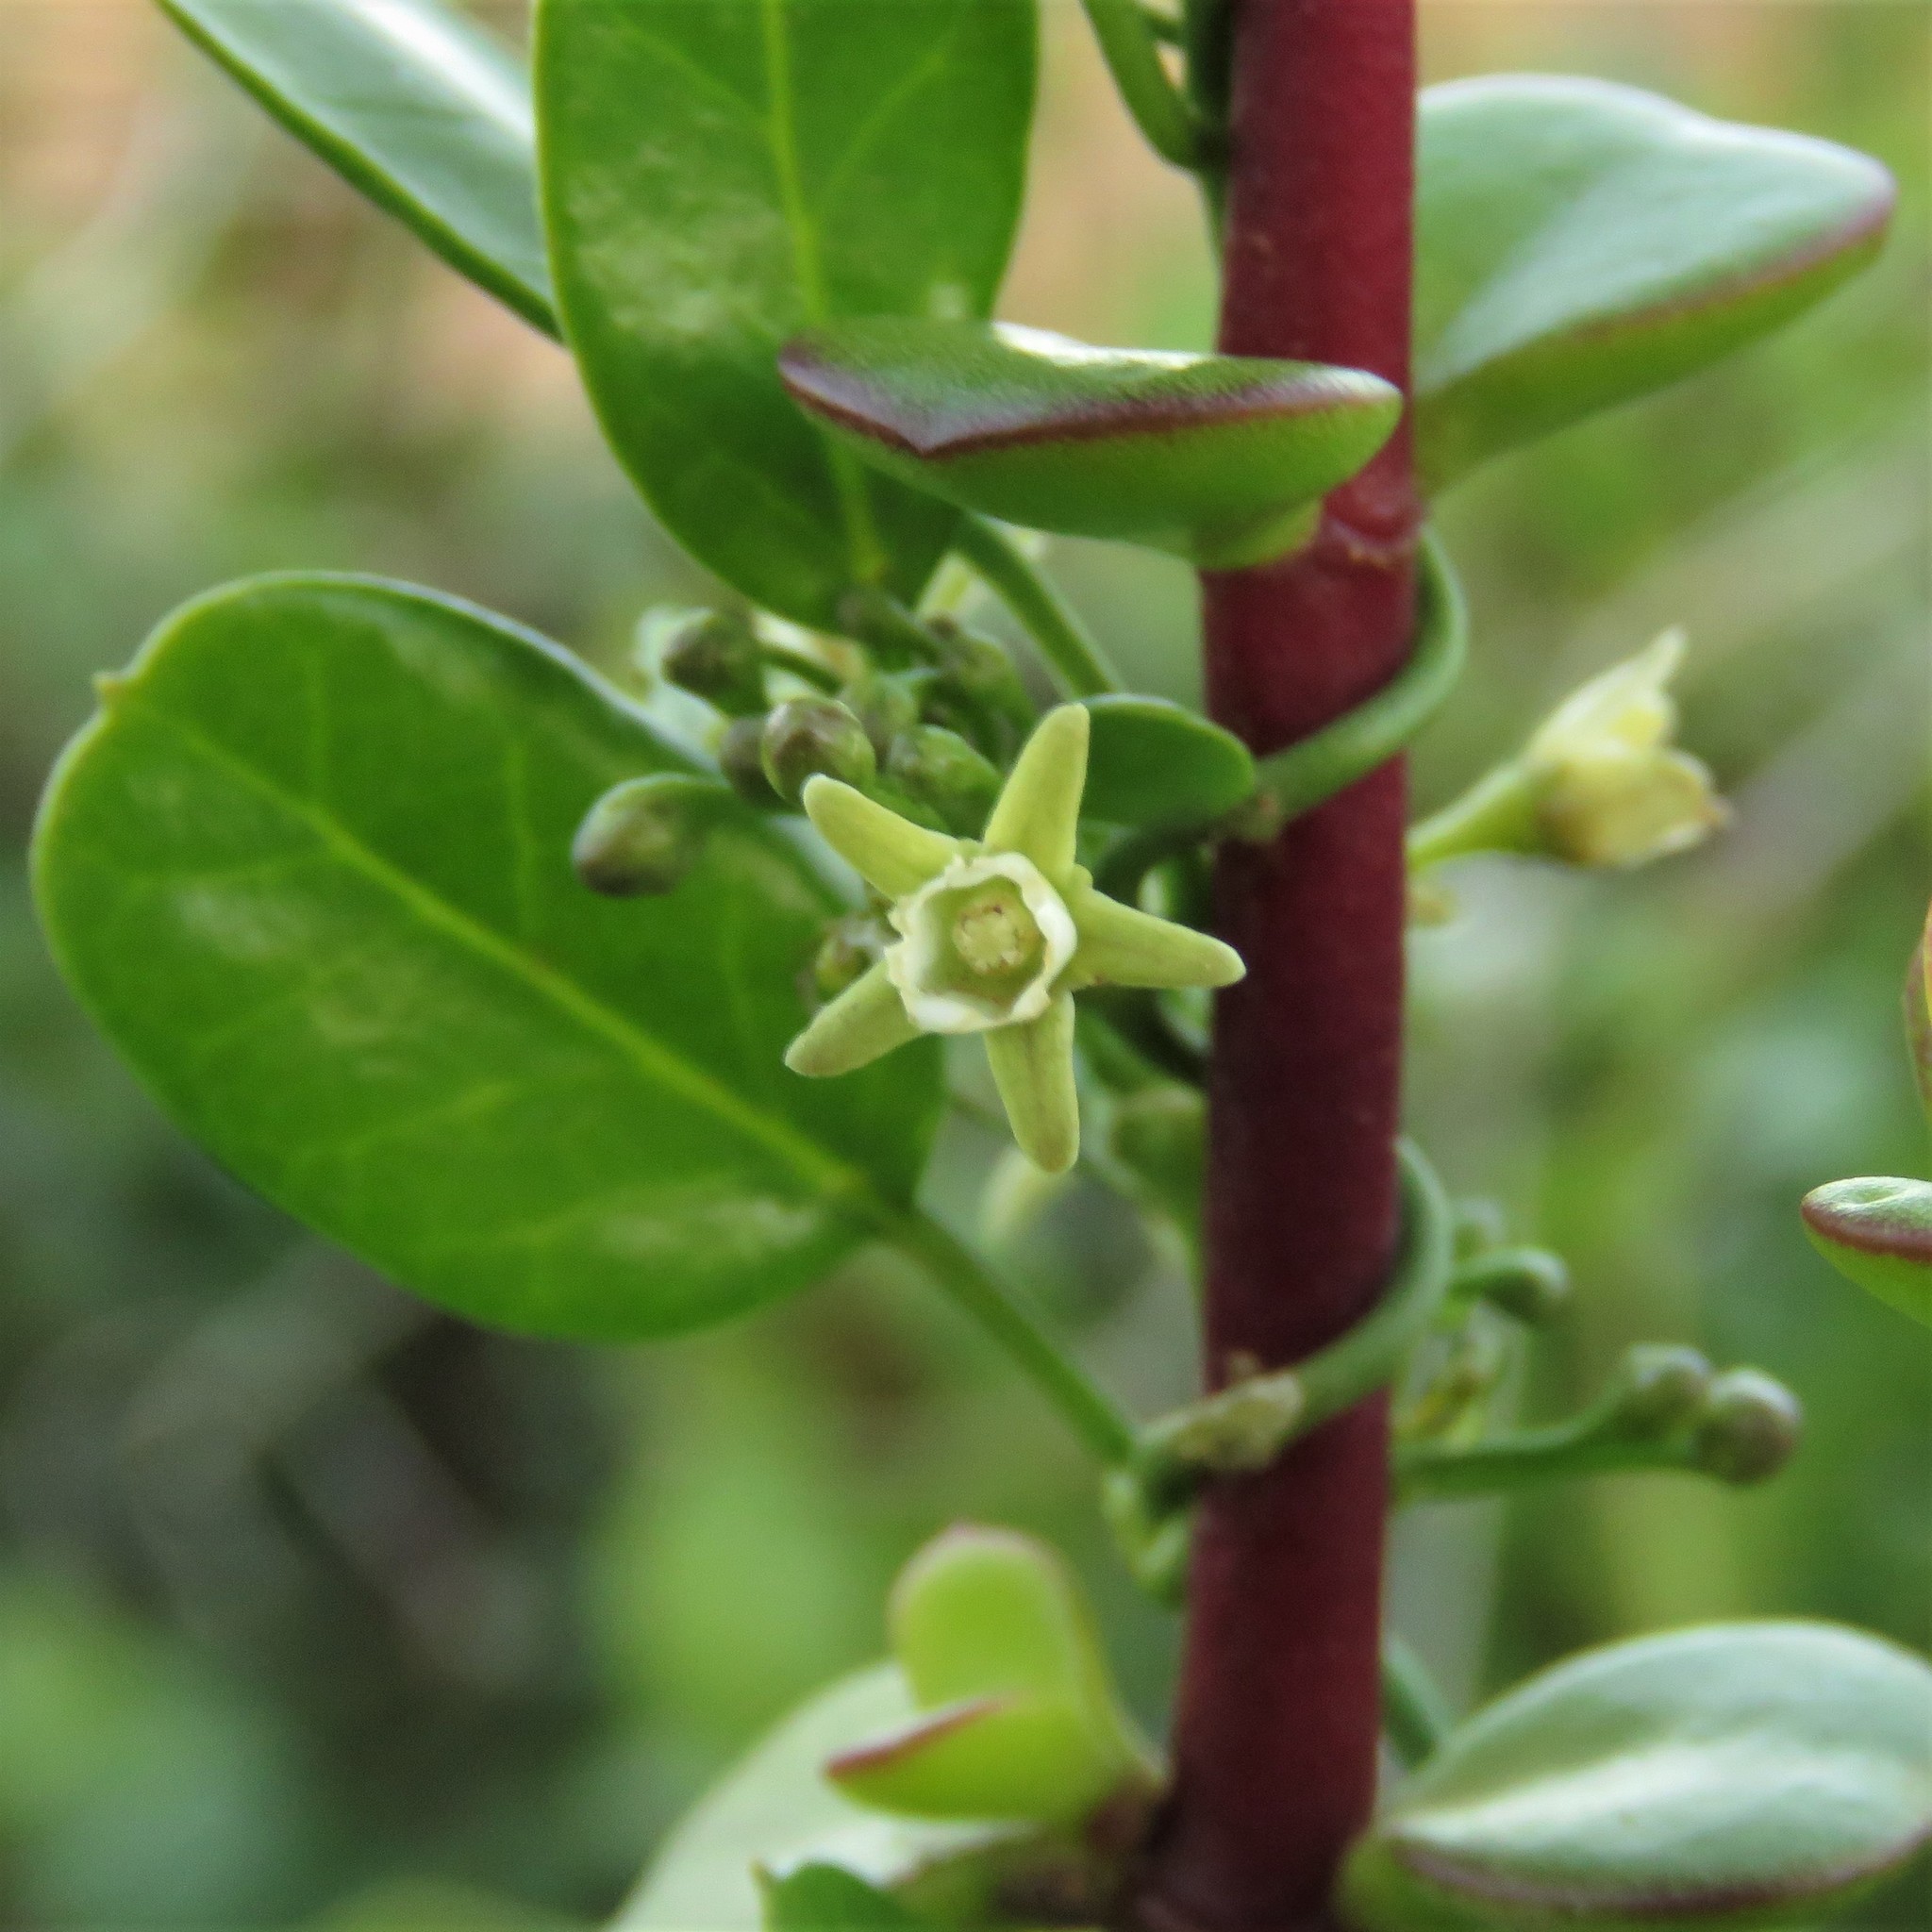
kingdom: Plantae
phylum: Tracheophyta
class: Magnoliopsida
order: Gentianales
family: Apocynaceae
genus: Cynanchum
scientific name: Cynanchum ellipticum
